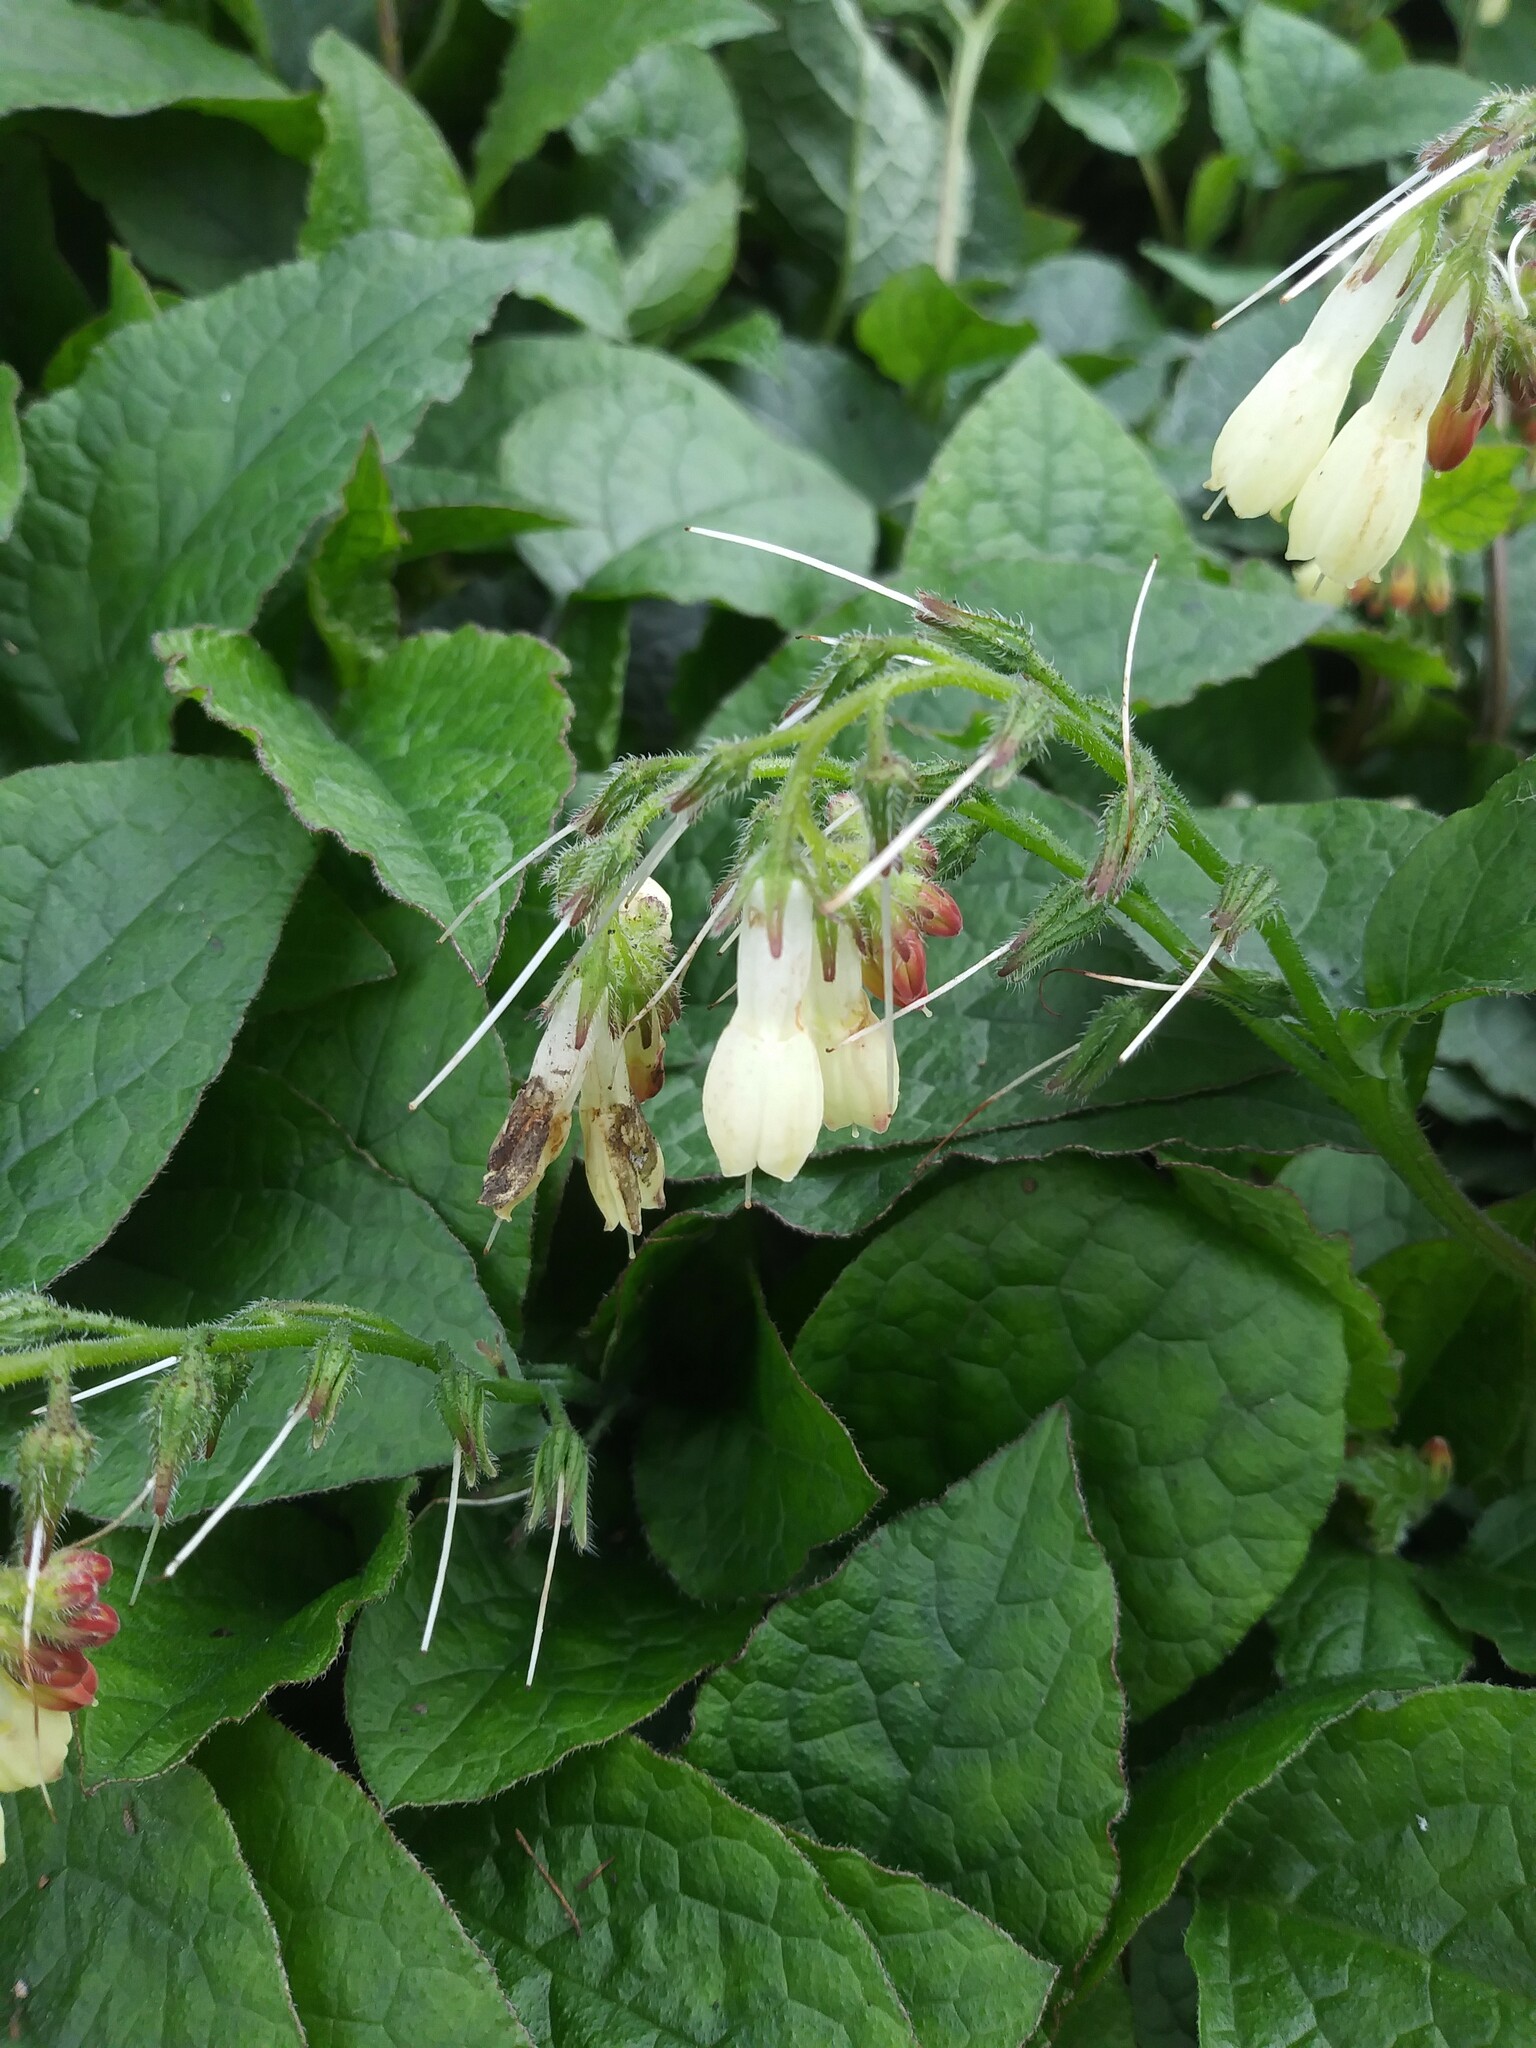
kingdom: Plantae
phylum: Tracheophyta
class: Magnoliopsida
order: Boraginales
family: Boraginaceae
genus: Symphytum
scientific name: Symphytum grandiflorum
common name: Creeping comfrey
